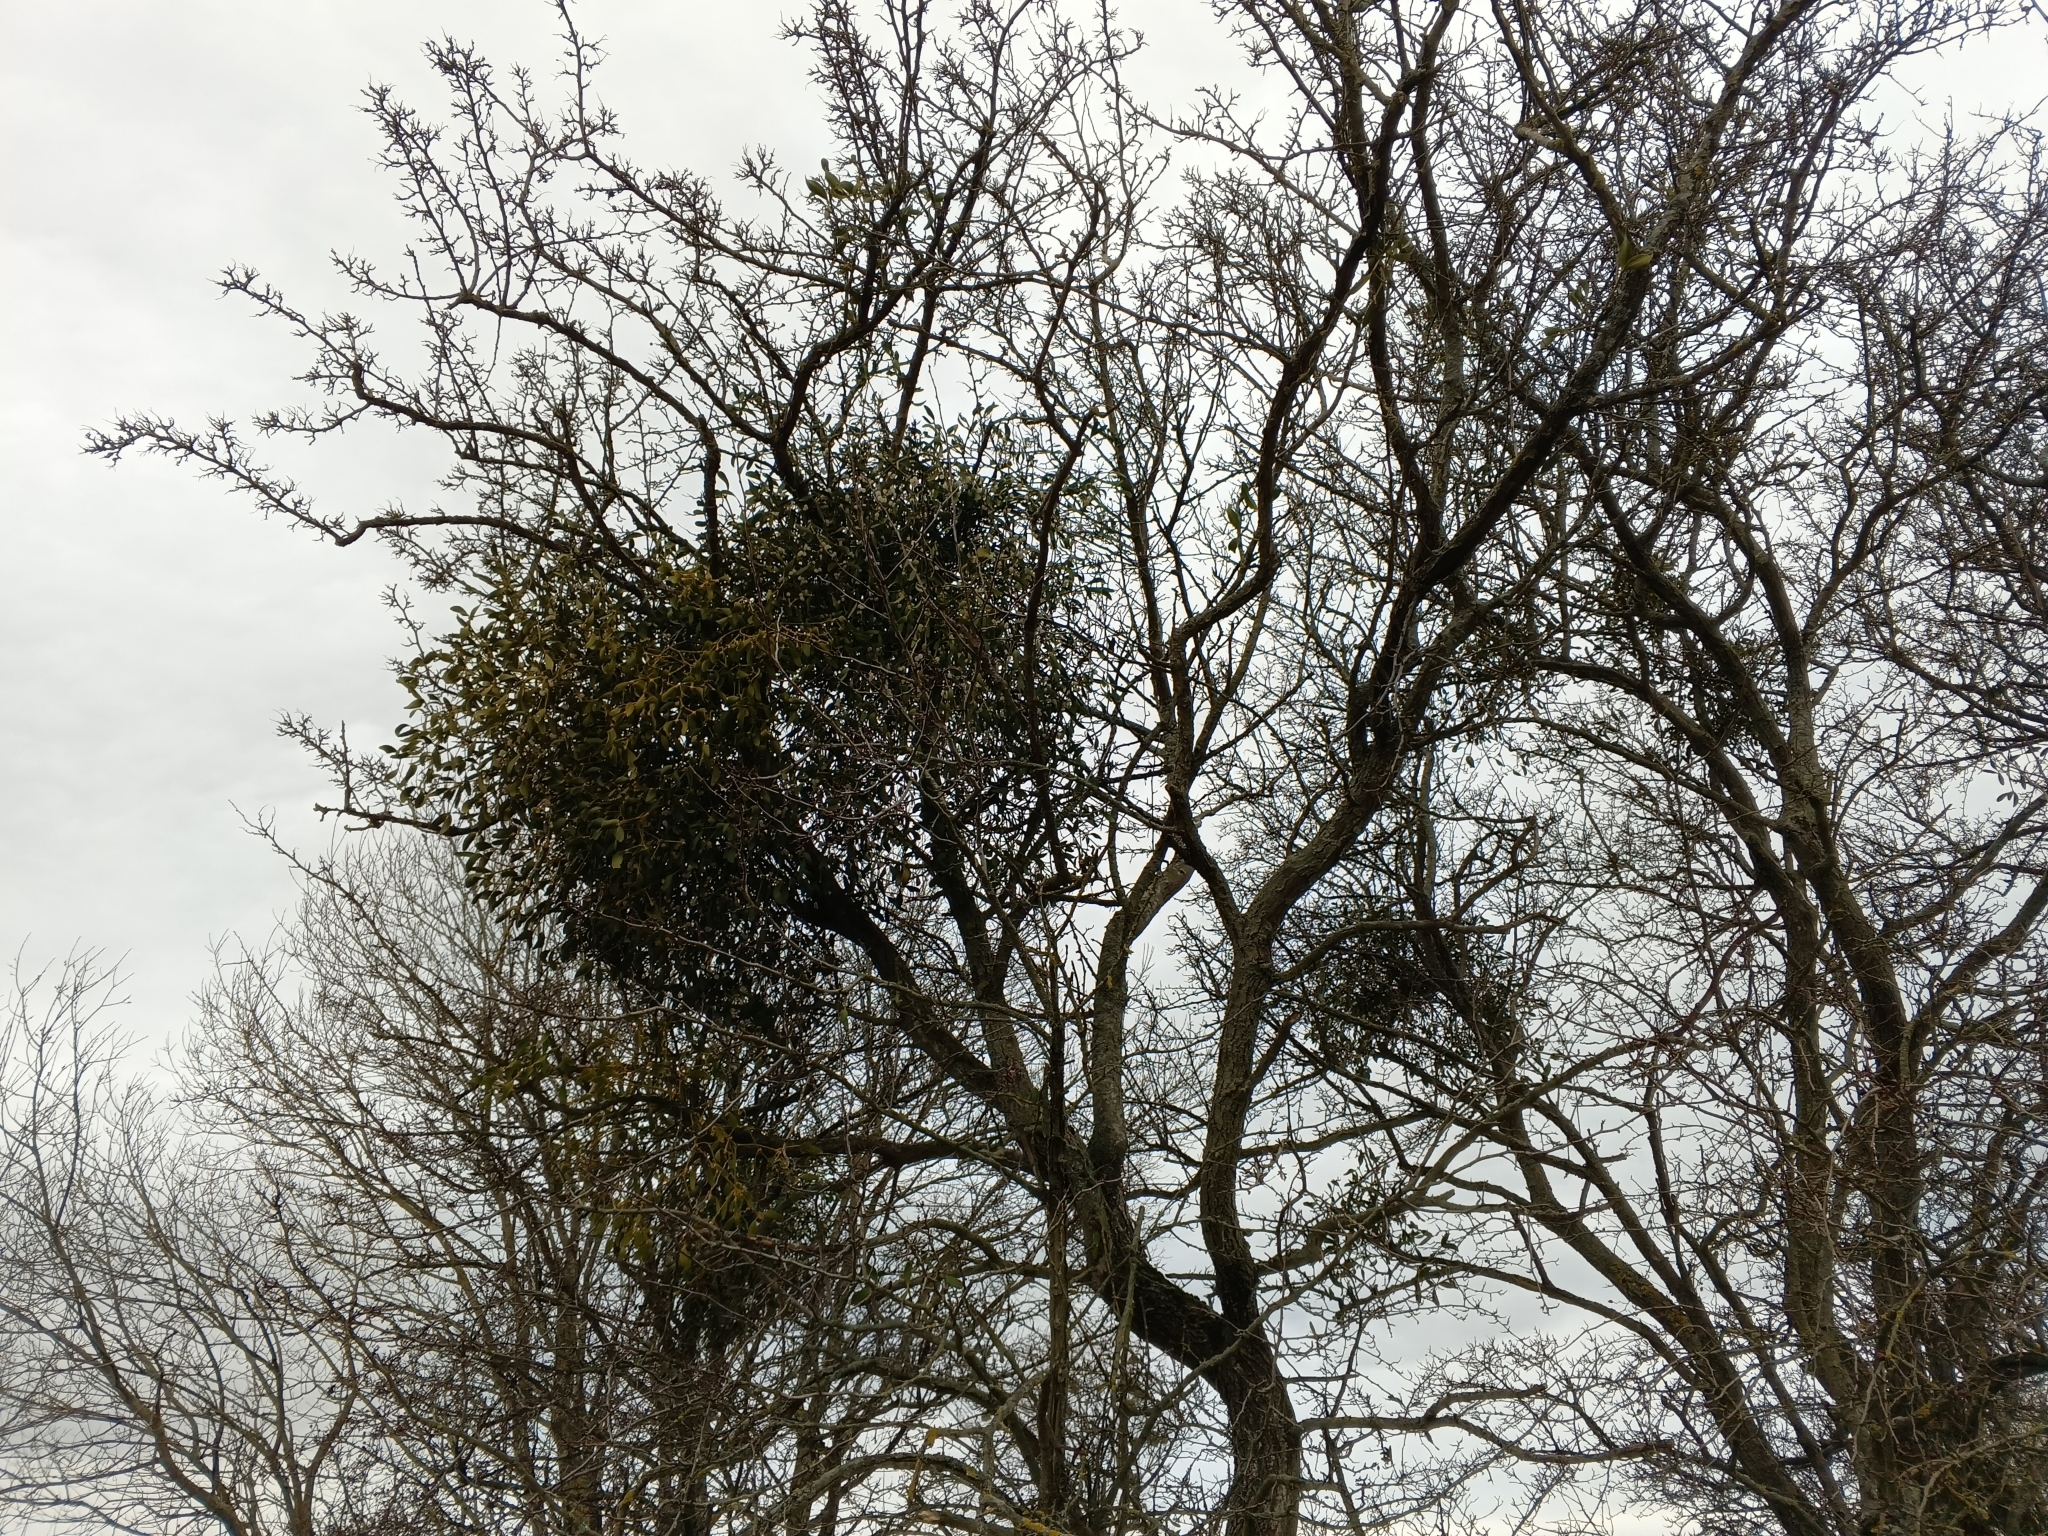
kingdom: Plantae
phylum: Tracheophyta
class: Magnoliopsida
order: Santalales
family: Viscaceae
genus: Viscum
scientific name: Viscum album
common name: Mistletoe
